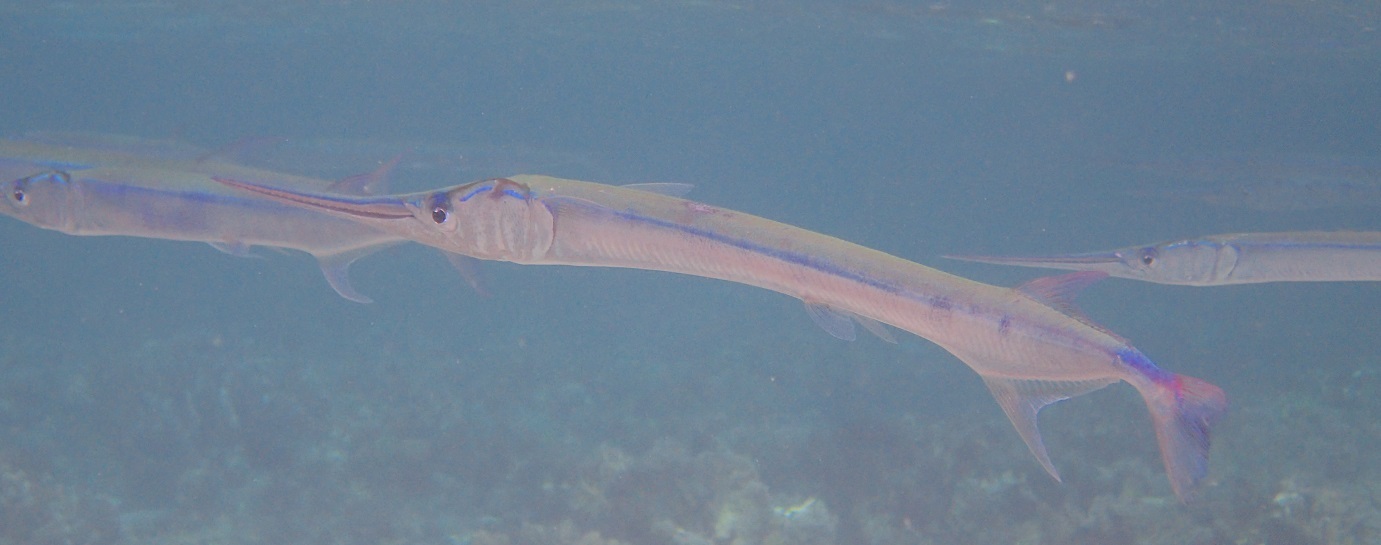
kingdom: Animalia
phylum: Chordata
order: Beloniformes
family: Belonidae
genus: Strongylura
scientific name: Strongylura incisa
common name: Reef needlefish
